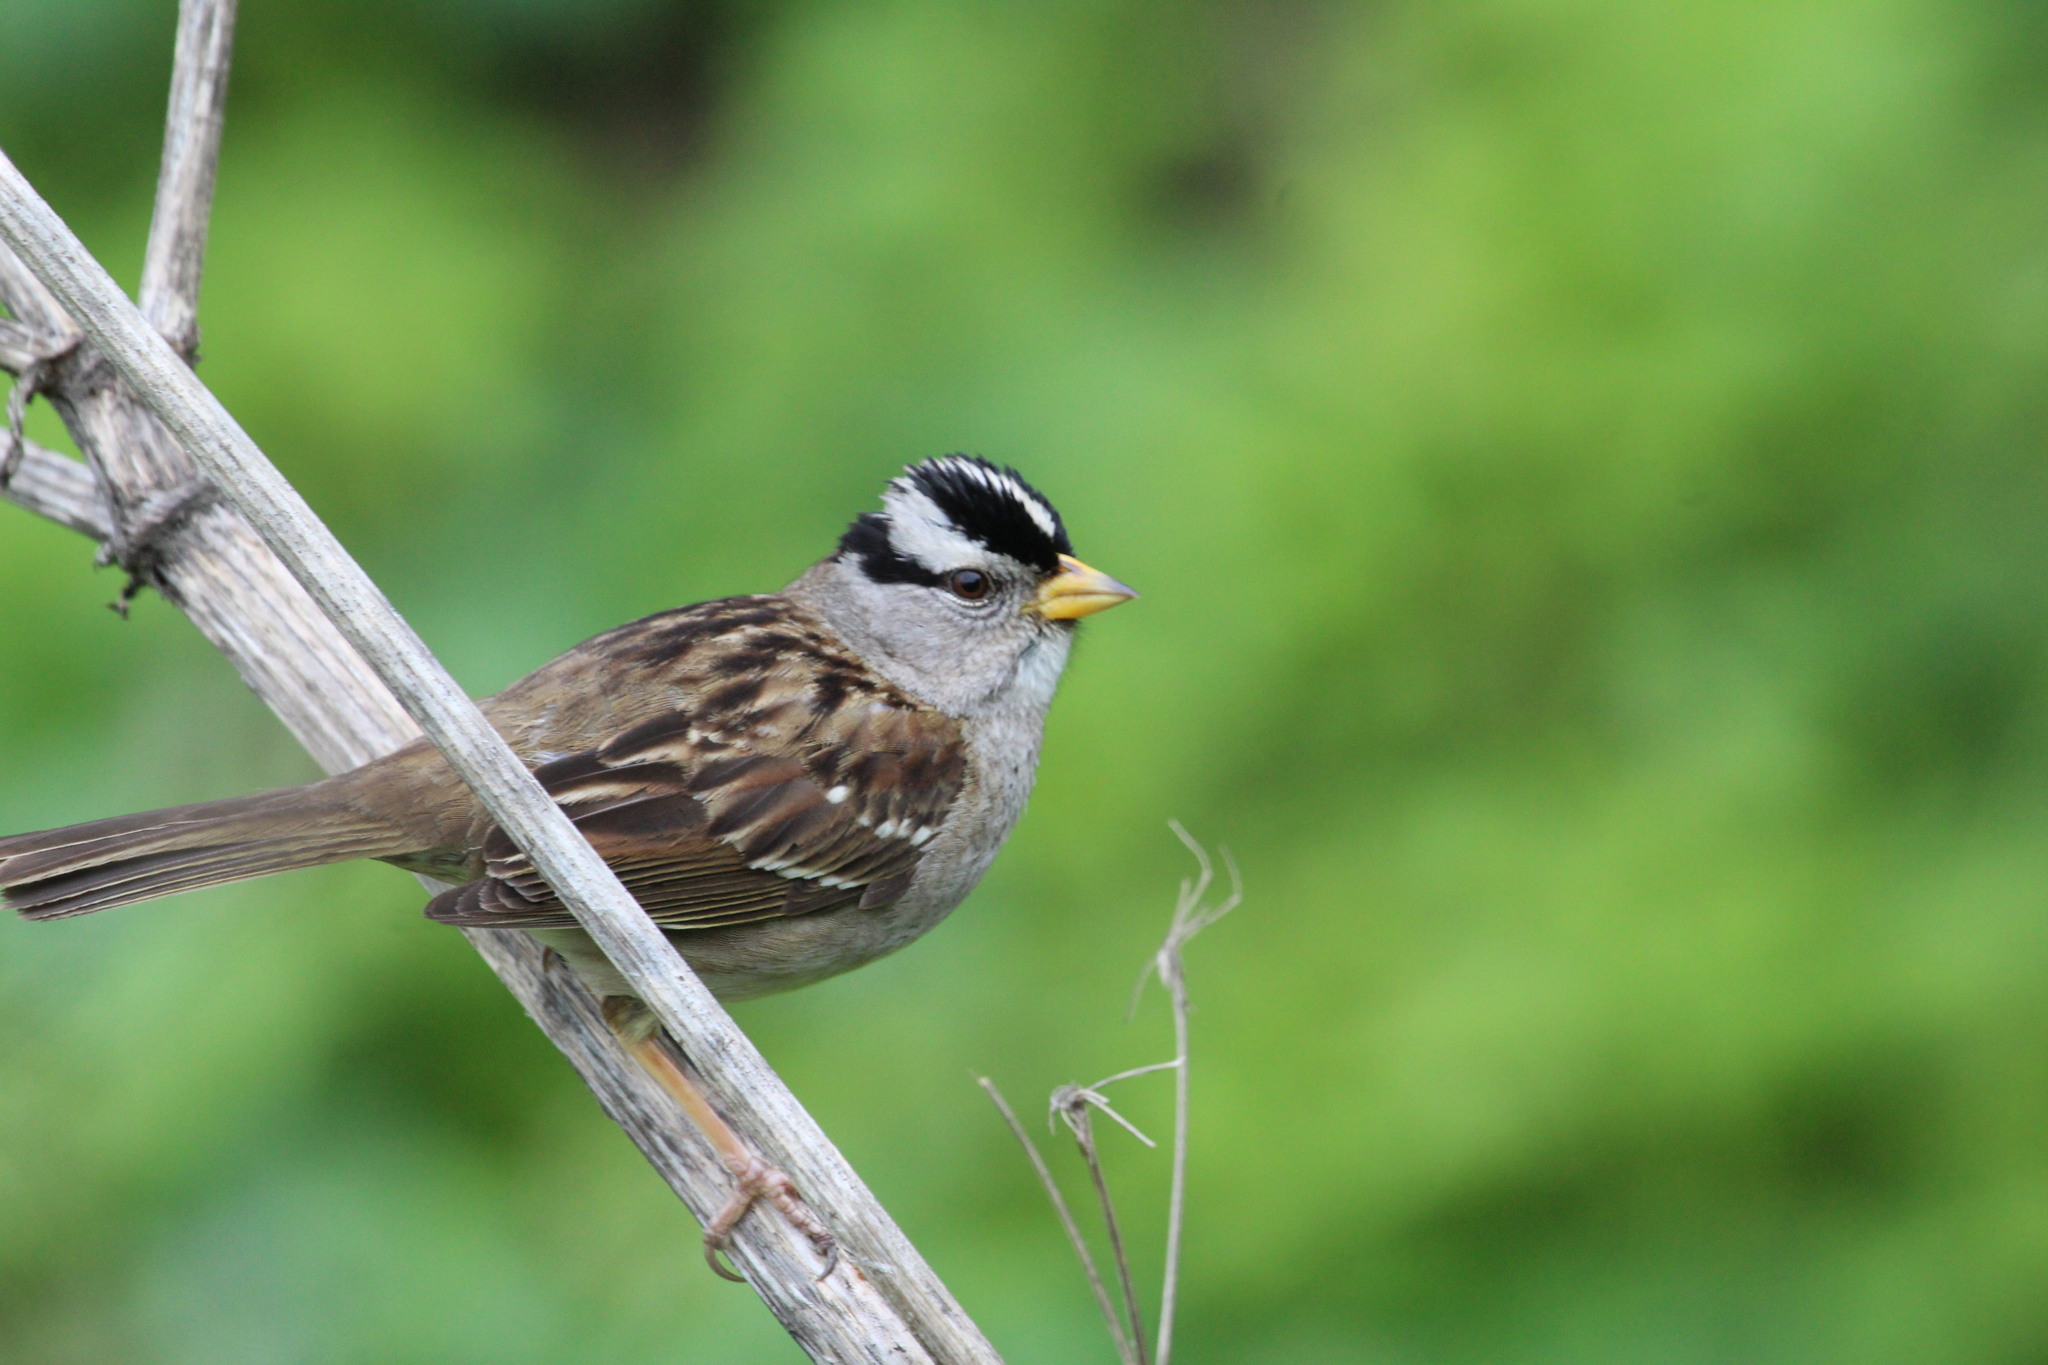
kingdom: Animalia
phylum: Chordata
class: Aves
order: Passeriformes
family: Passerellidae
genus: Zonotrichia
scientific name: Zonotrichia leucophrys
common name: White-crowned sparrow
